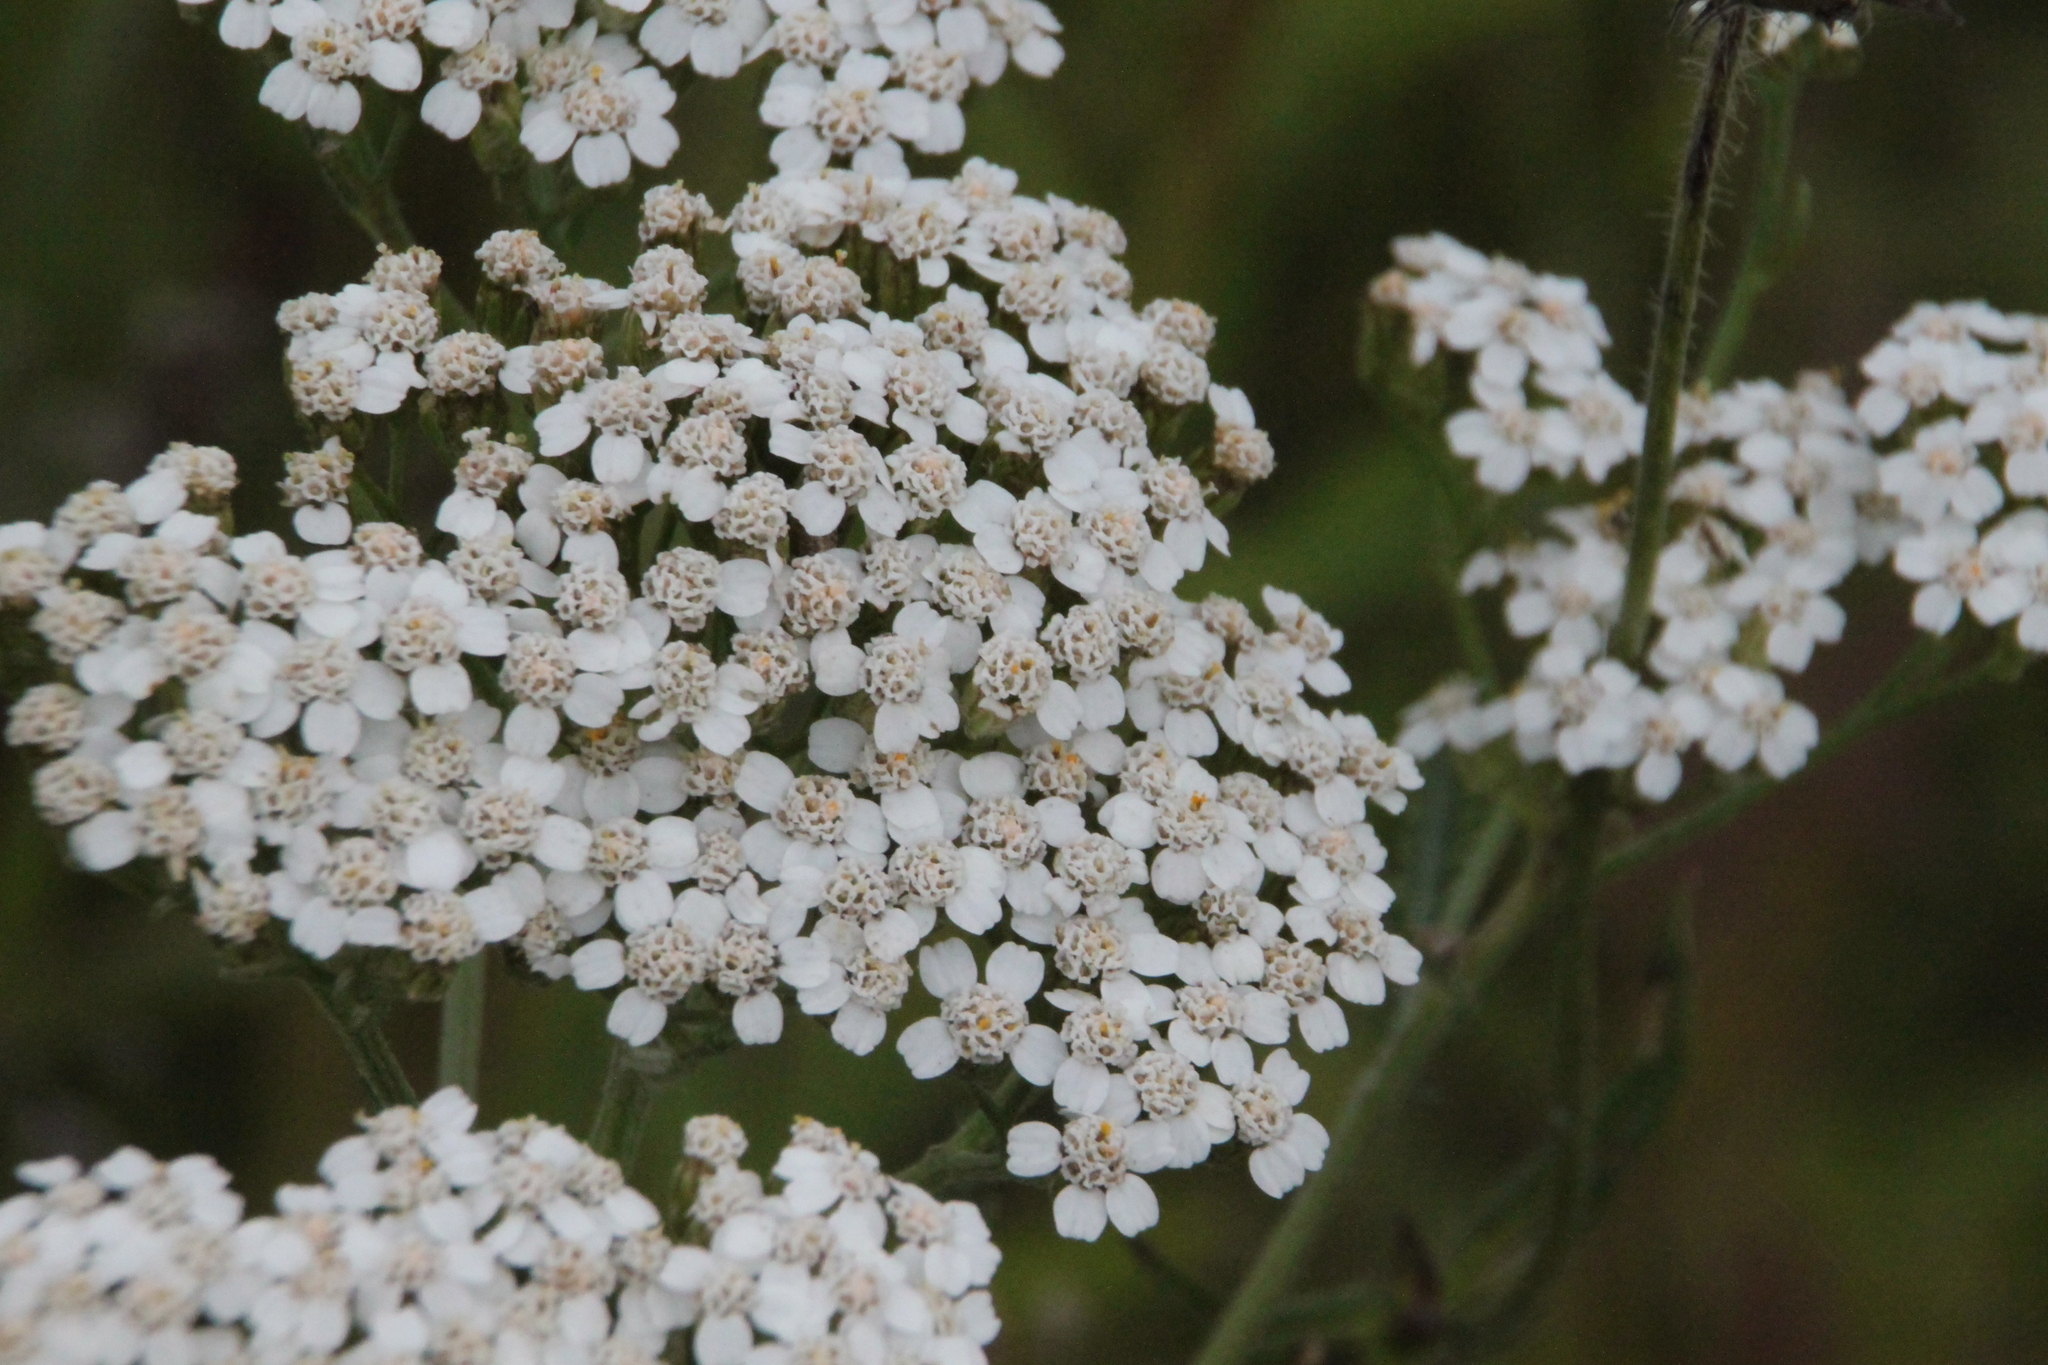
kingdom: Plantae
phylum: Tracheophyta
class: Magnoliopsida
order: Asterales
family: Asteraceae
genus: Achillea
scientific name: Achillea millefolium
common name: Yarrow
